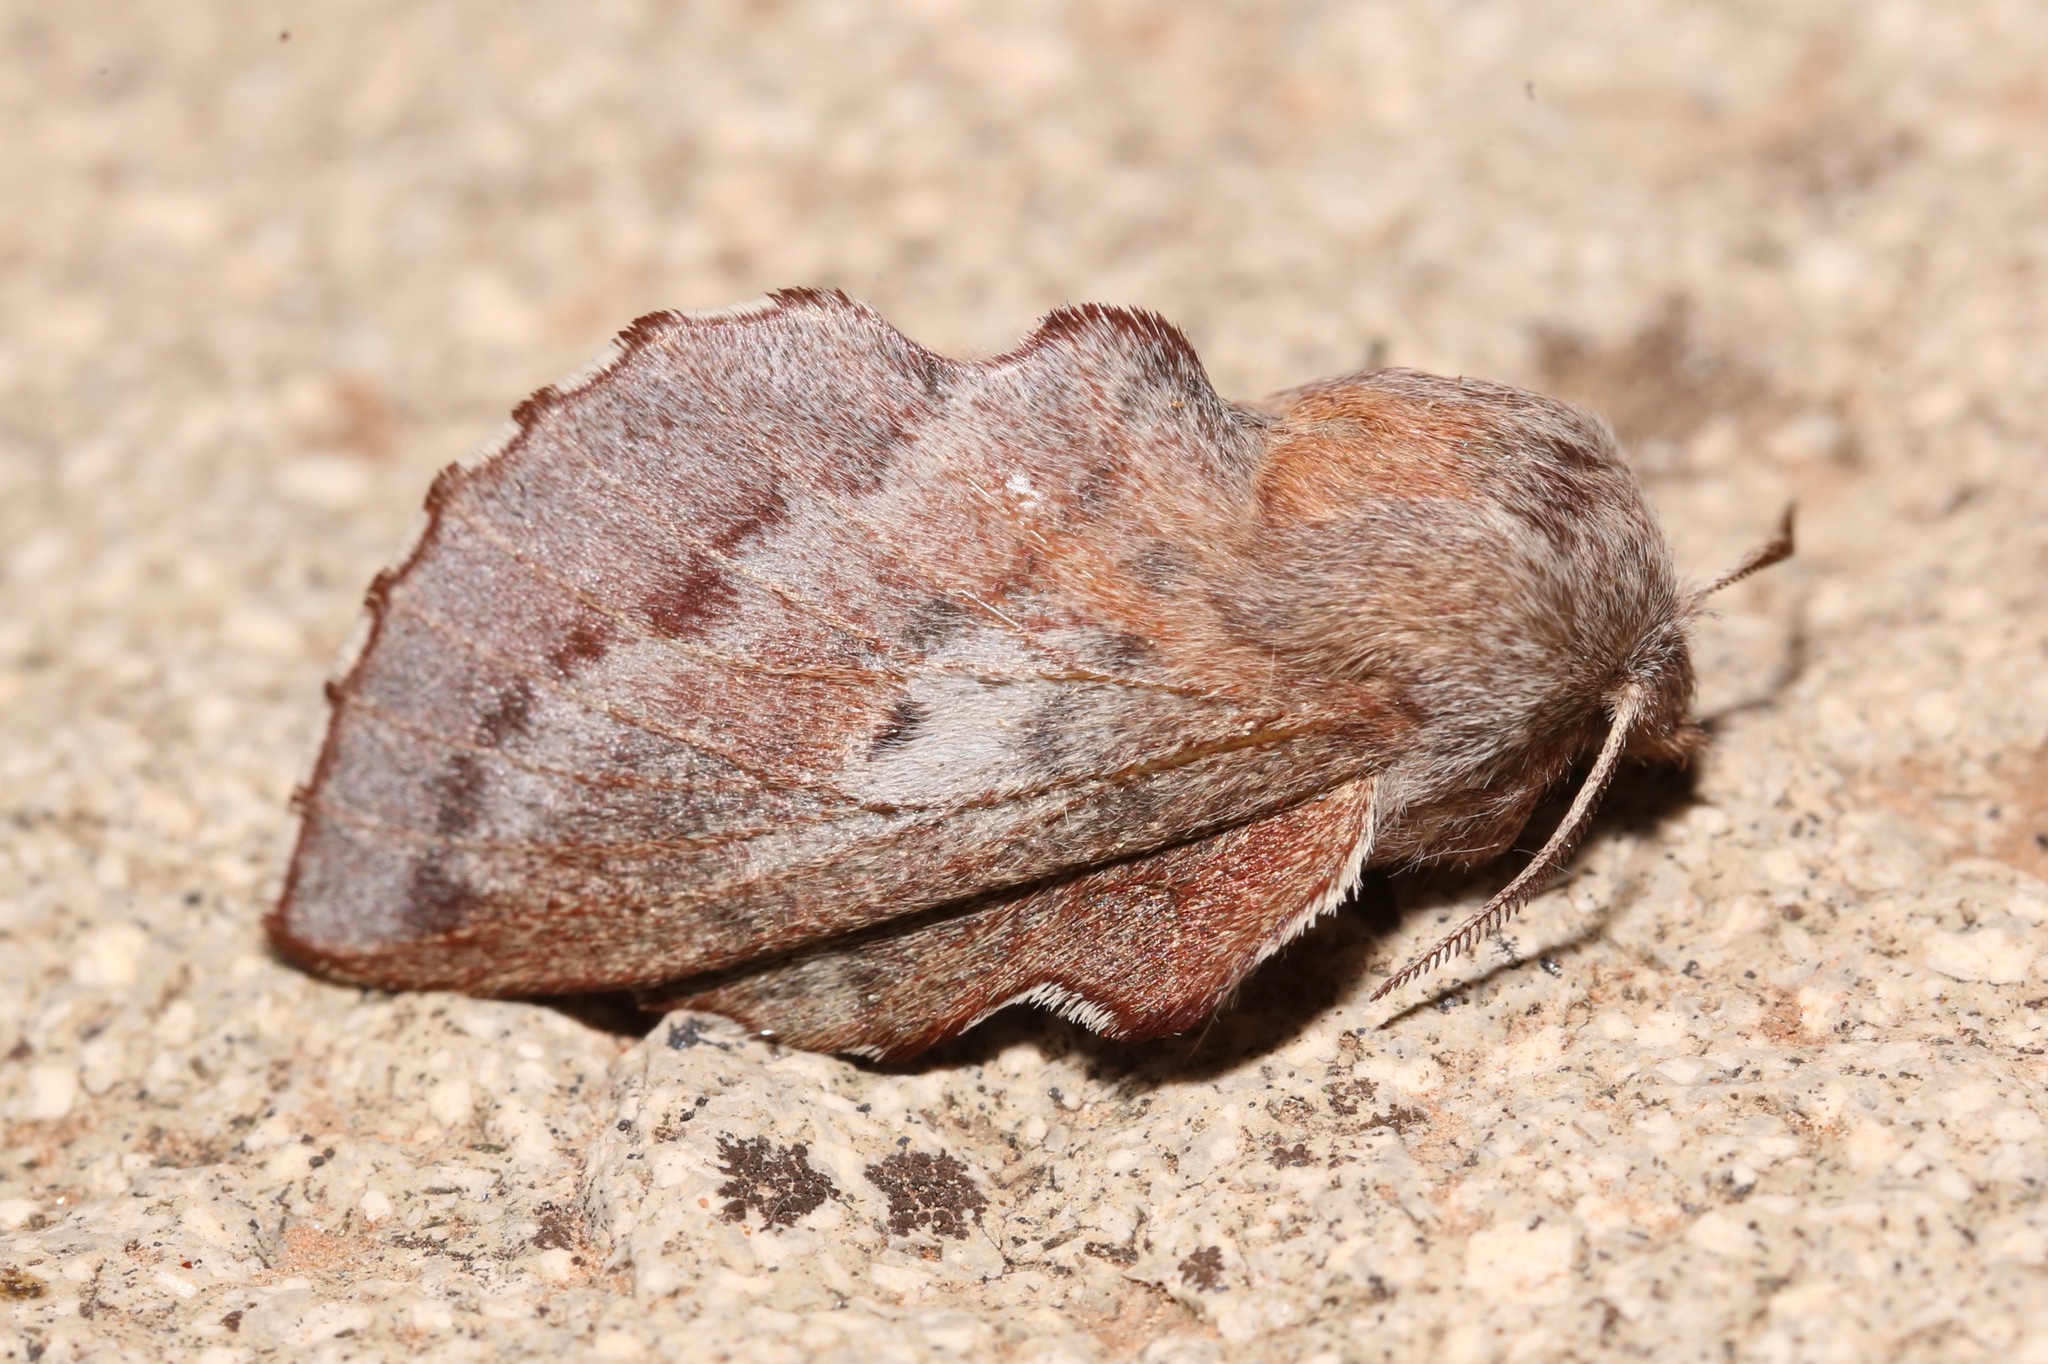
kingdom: Animalia
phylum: Arthropoda
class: Insecta
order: Lepidoptera
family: Lasiocampidae
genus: Phyllodesma
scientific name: Phyllodesma americana
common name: American lappet moth
